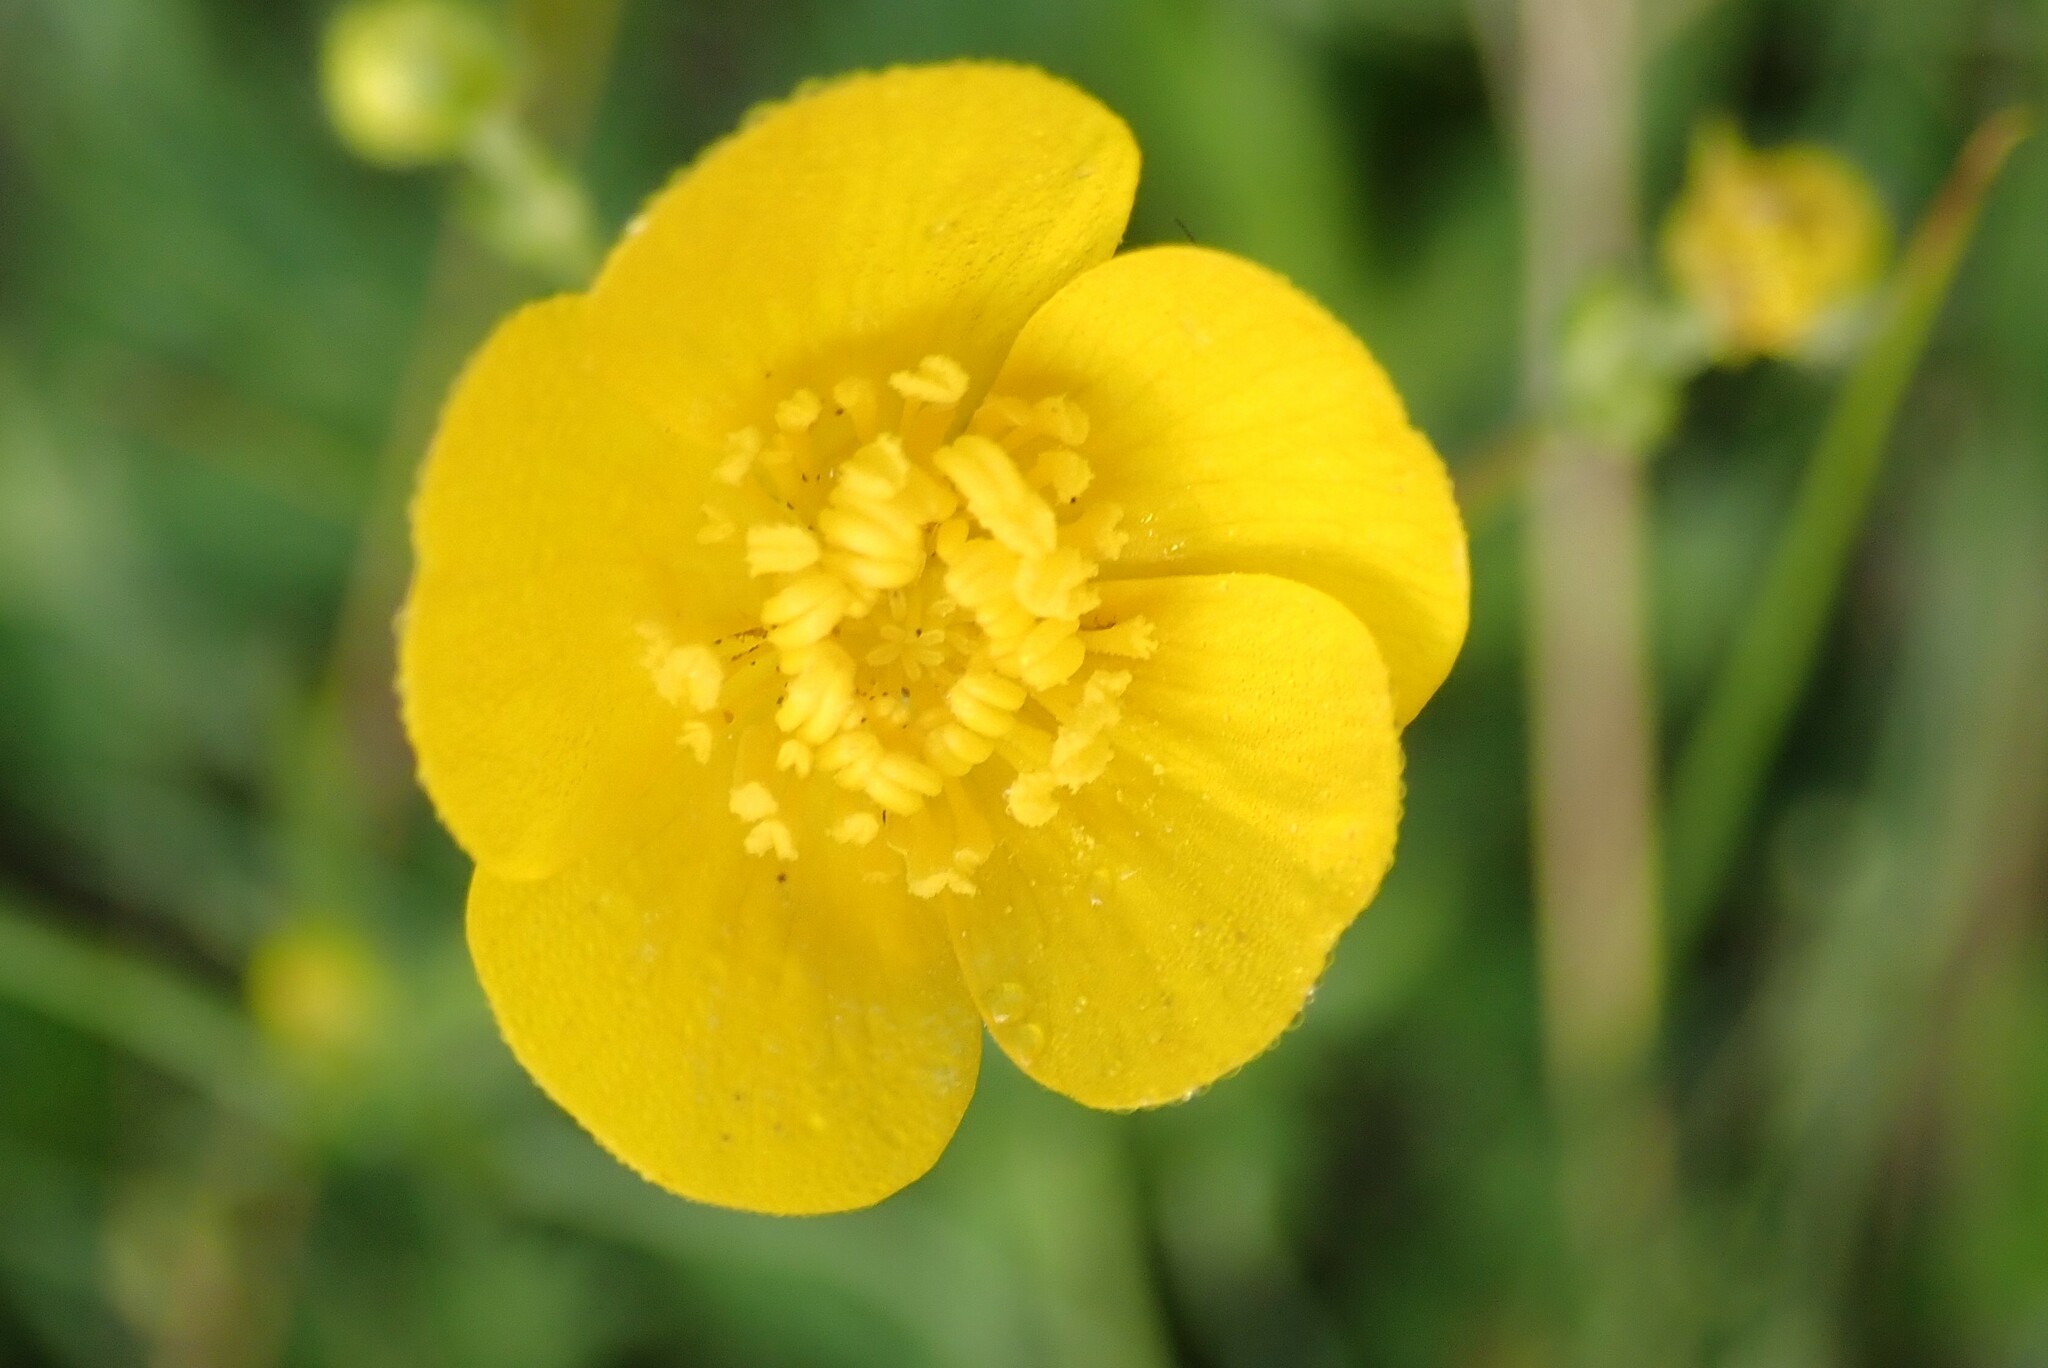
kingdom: Plantae
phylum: Tracheophyta
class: Magnoliopsida
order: Ranunculales
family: Ranunculaceae
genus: Ranunculus
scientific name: Ranunculus acris
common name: Meadow buttercup
